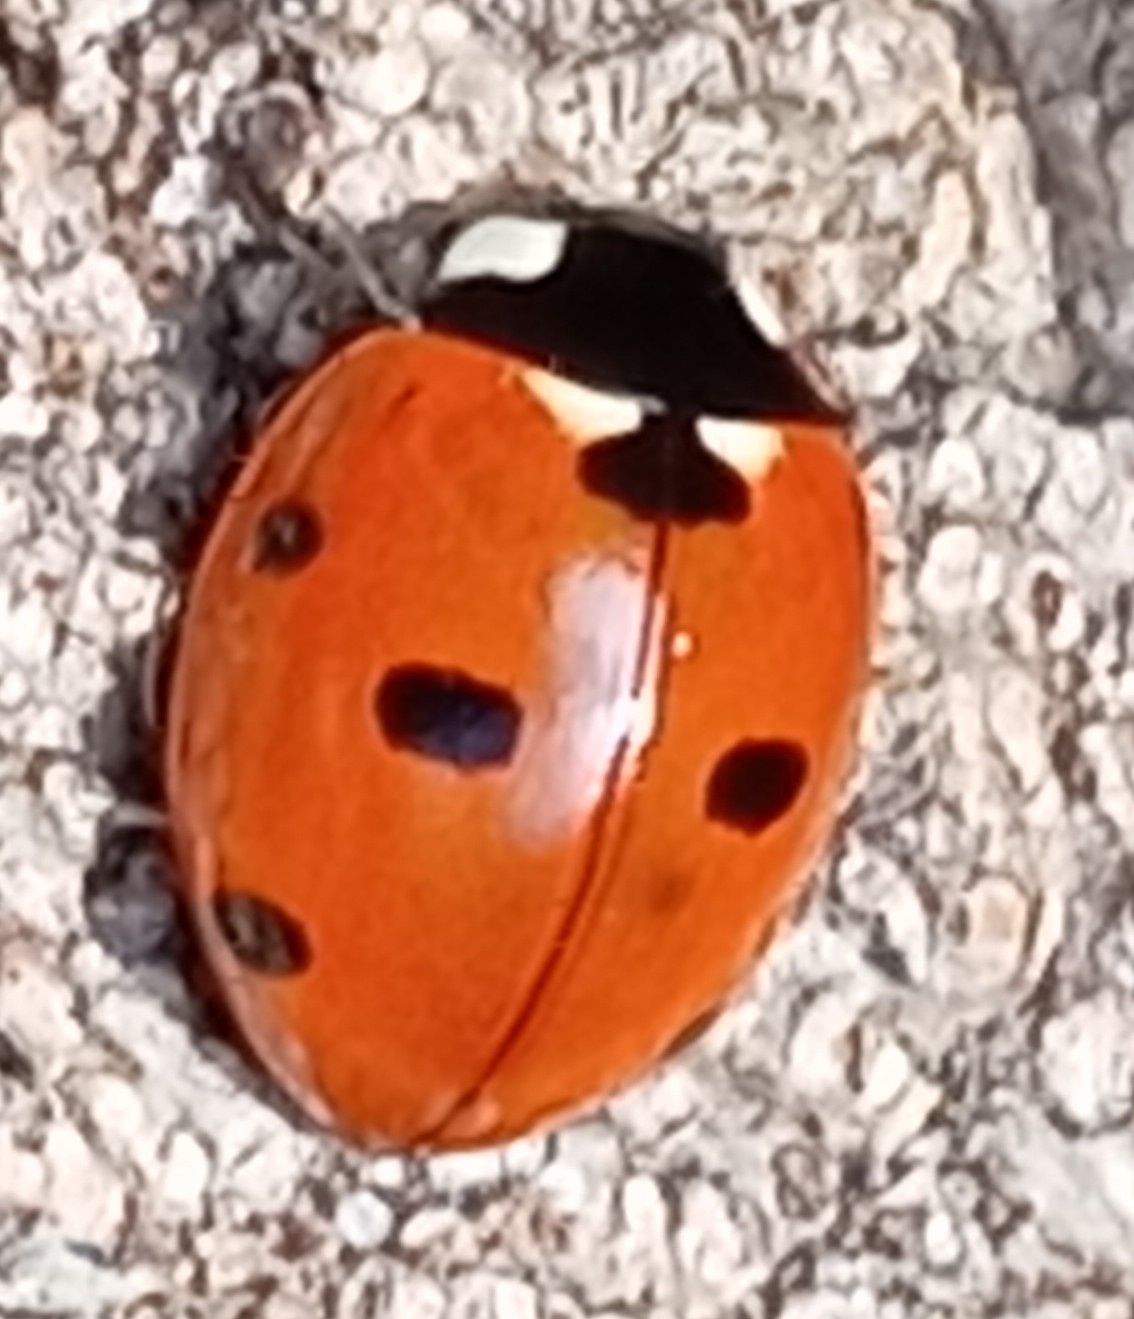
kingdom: Animalia
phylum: Arthropoda
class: Insecta
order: Coleoptera
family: Coccinellidae
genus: Coccinella
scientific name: Coccinella septempunctata
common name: Sevenspotted lady beetle
